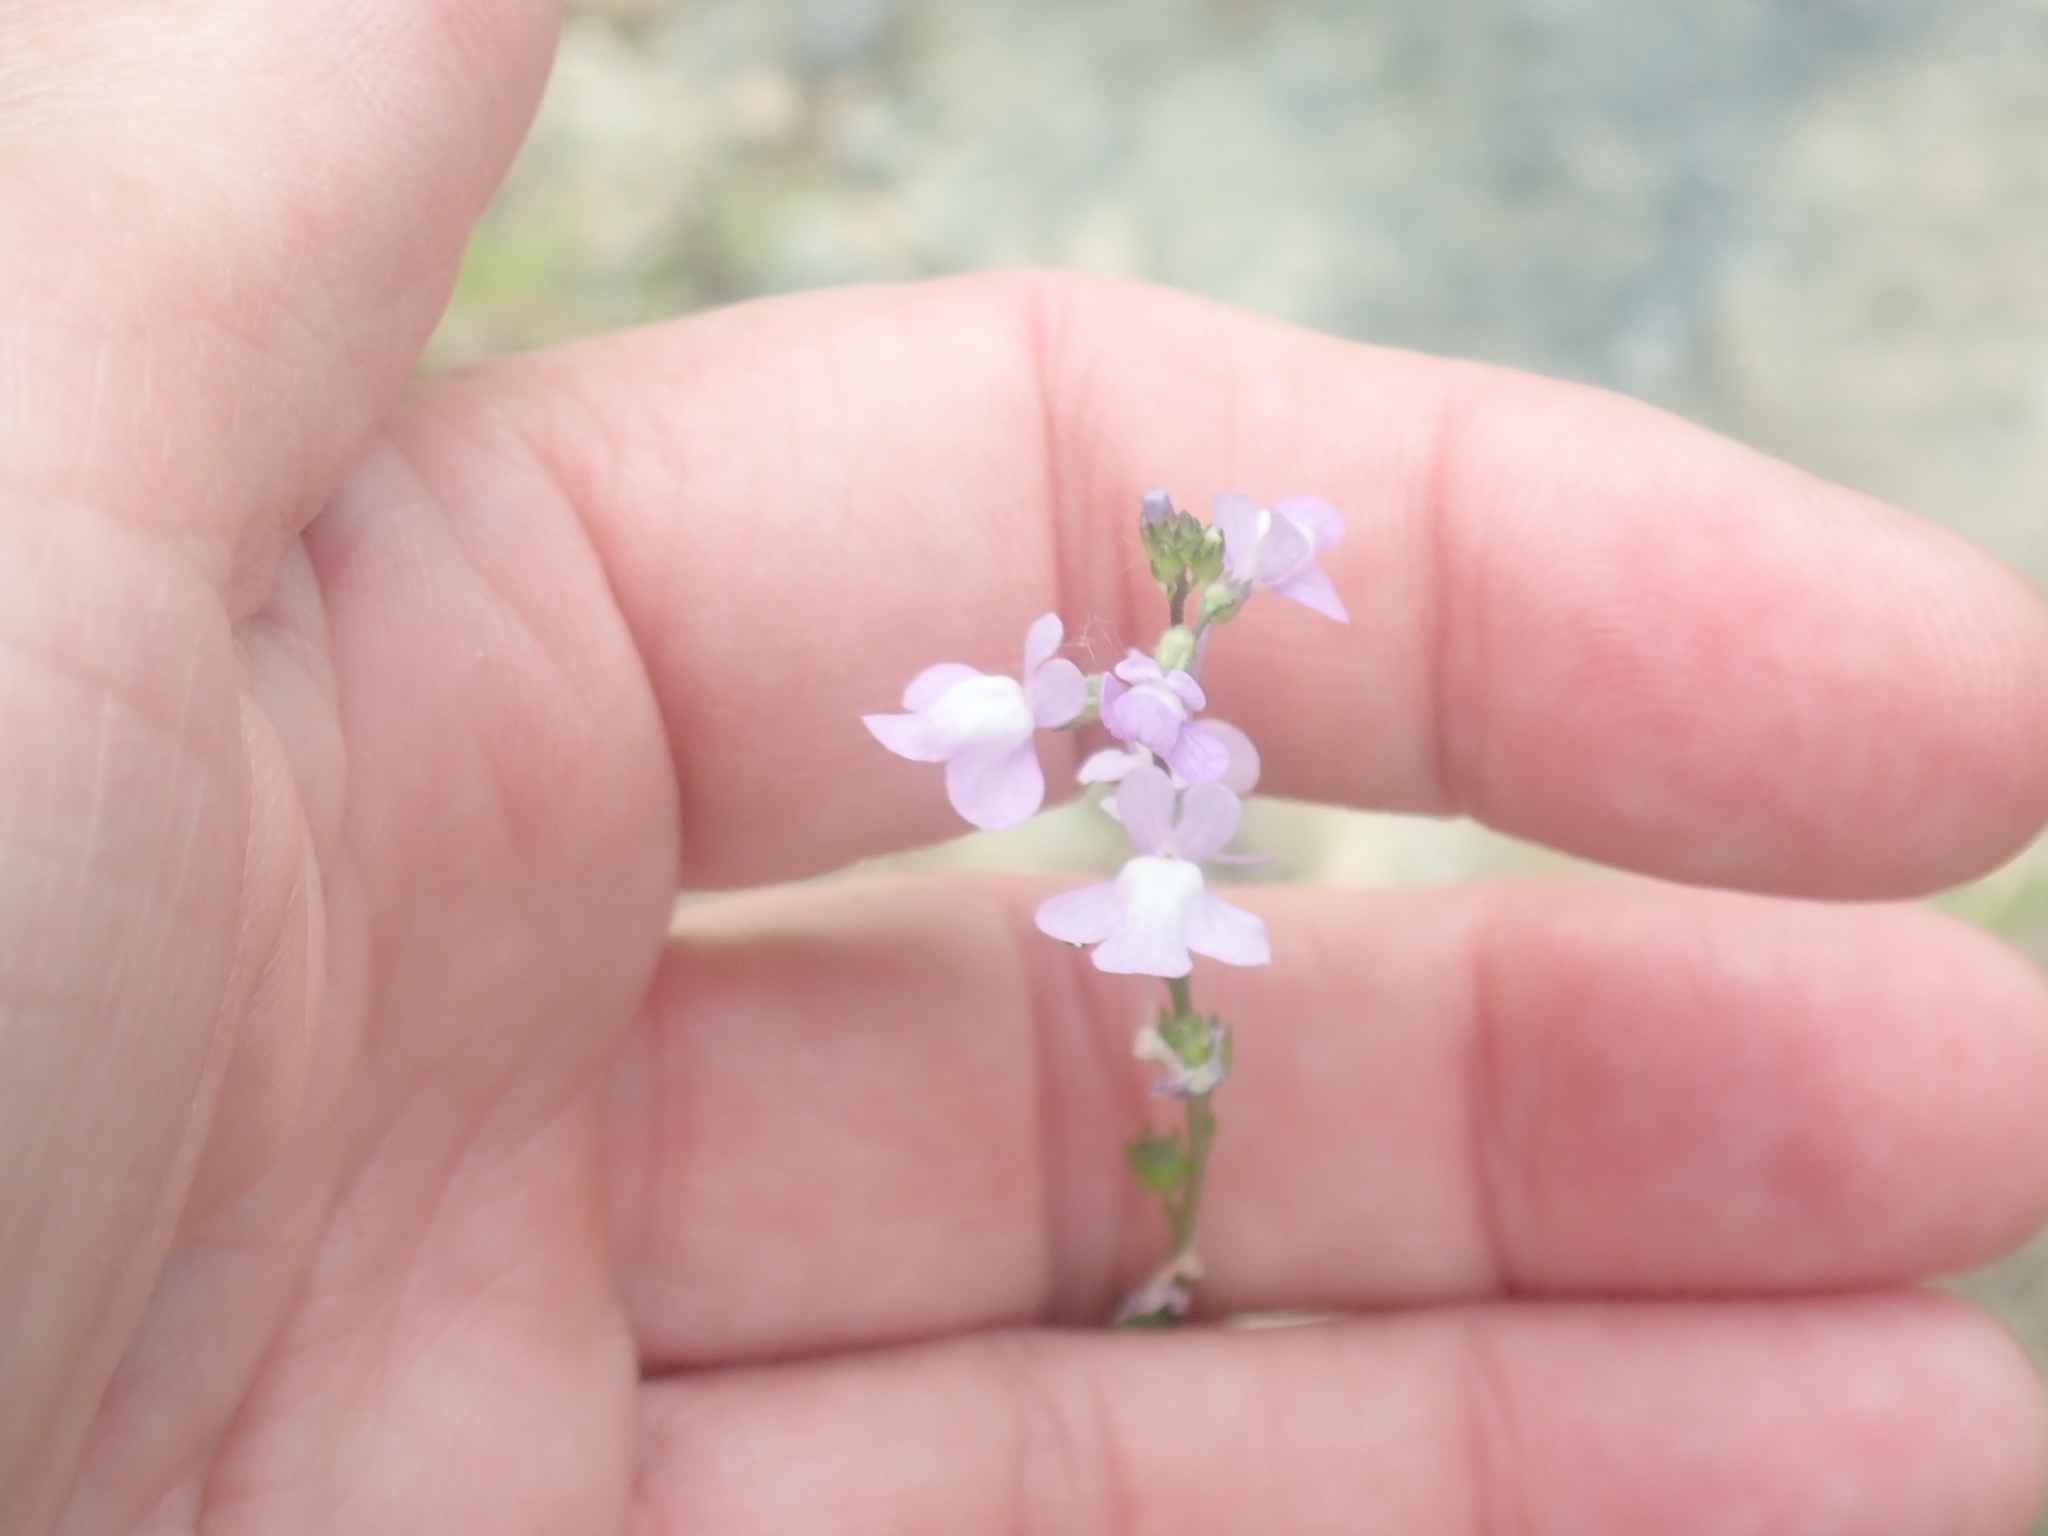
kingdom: Plantae
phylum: Tracheophyta
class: Magnoliopsida
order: Lamiales
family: Plantaginaceae
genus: Nuttallanthus
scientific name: Nuttallanthus canadensis
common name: Blue toadflax
